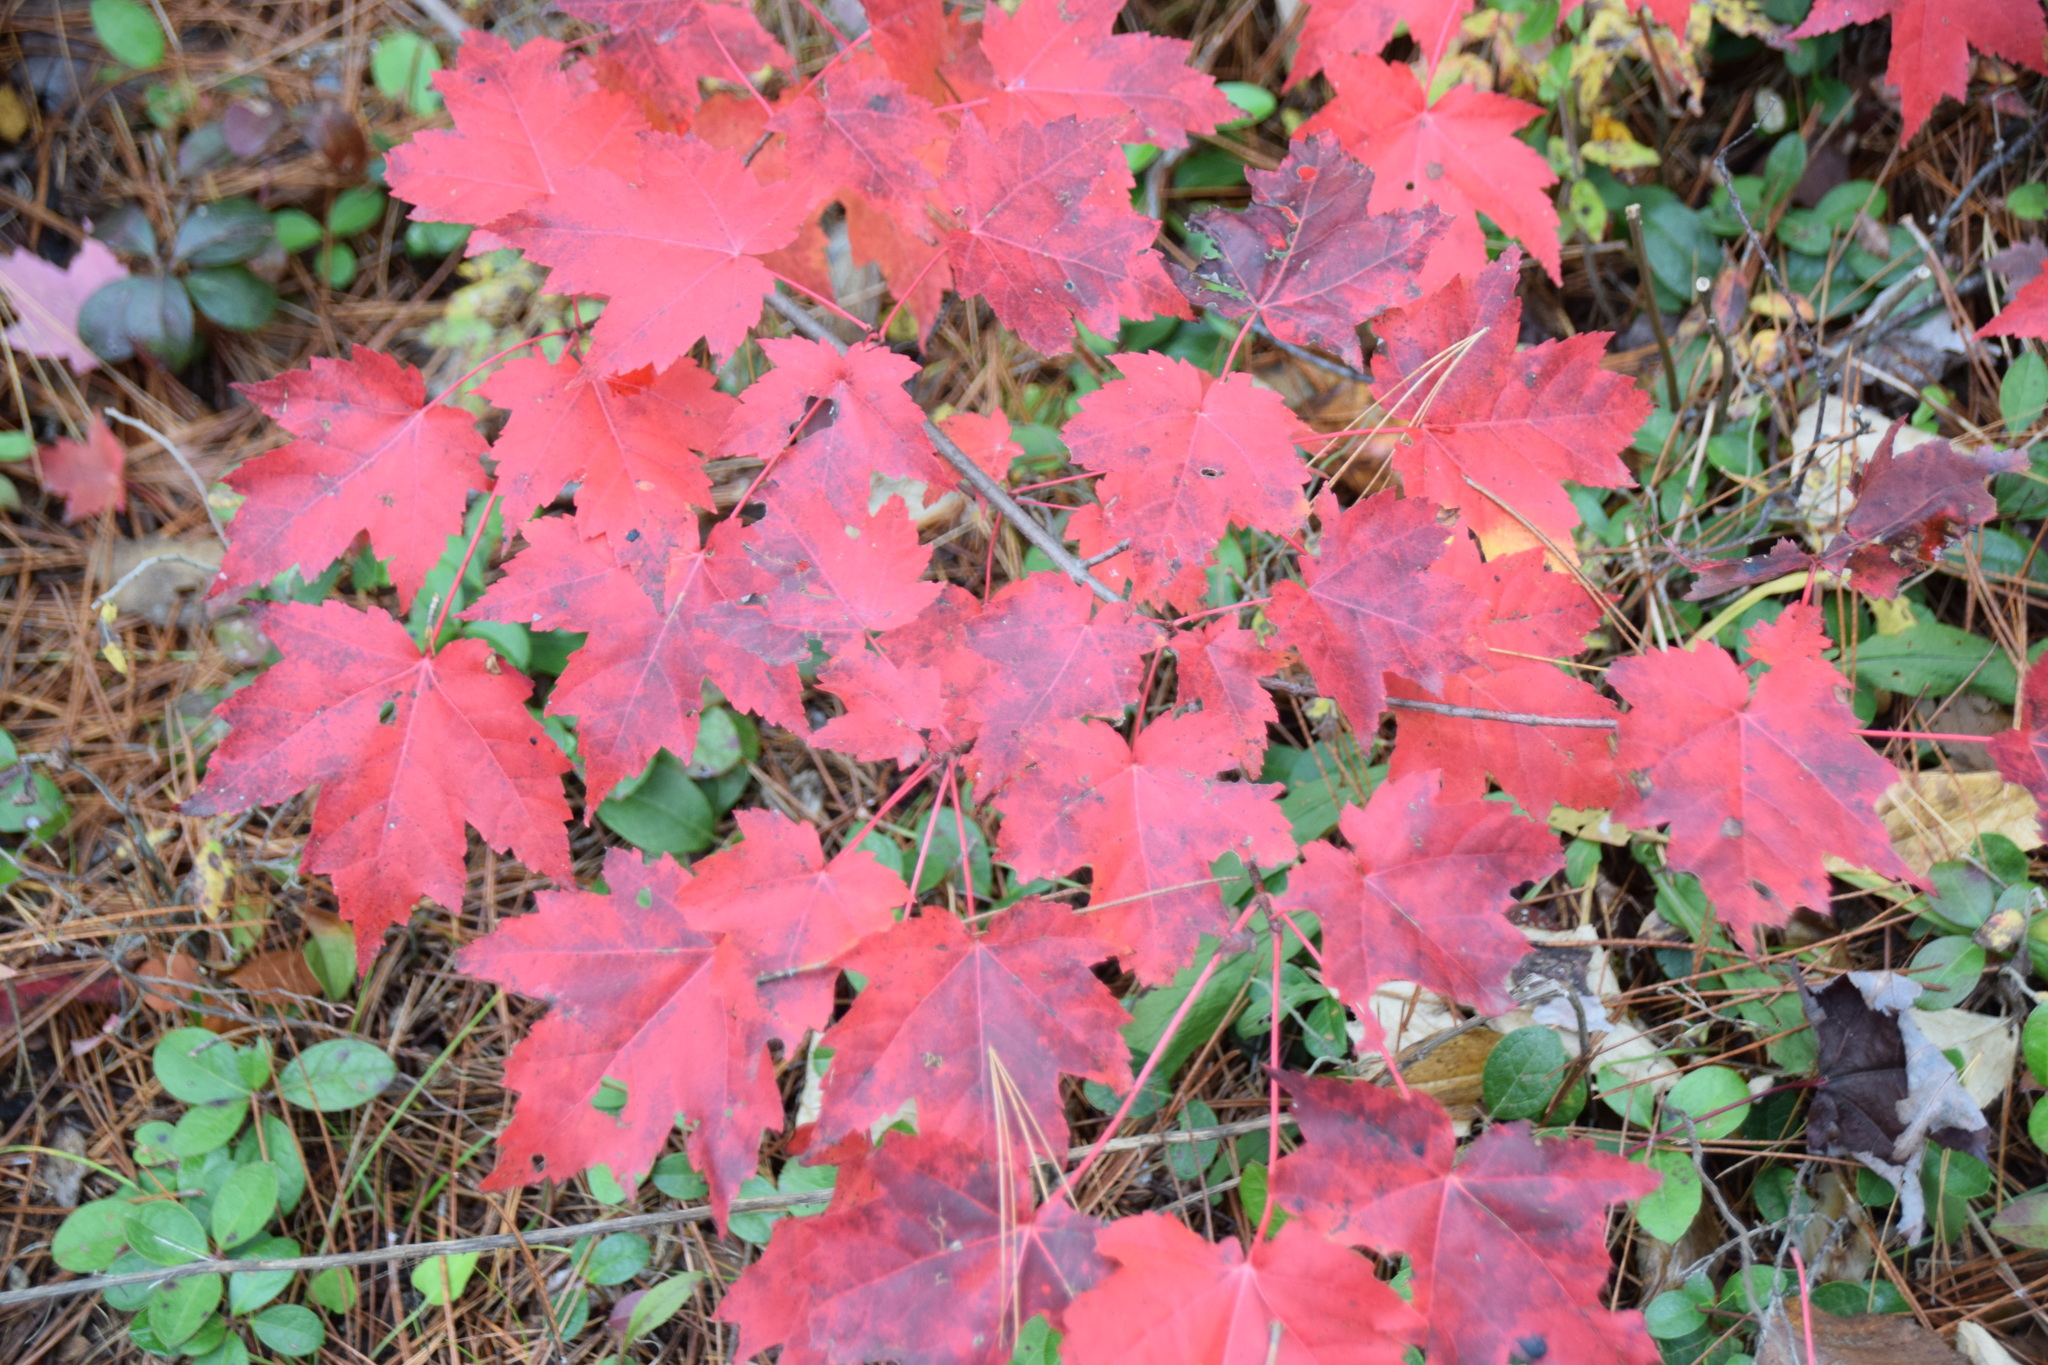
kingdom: Plantae
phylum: Tracheophyta
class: Magnoliopsida
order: Sapindales
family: Sapindaceae
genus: Acer
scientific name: Acer rubrum
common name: Red maple
